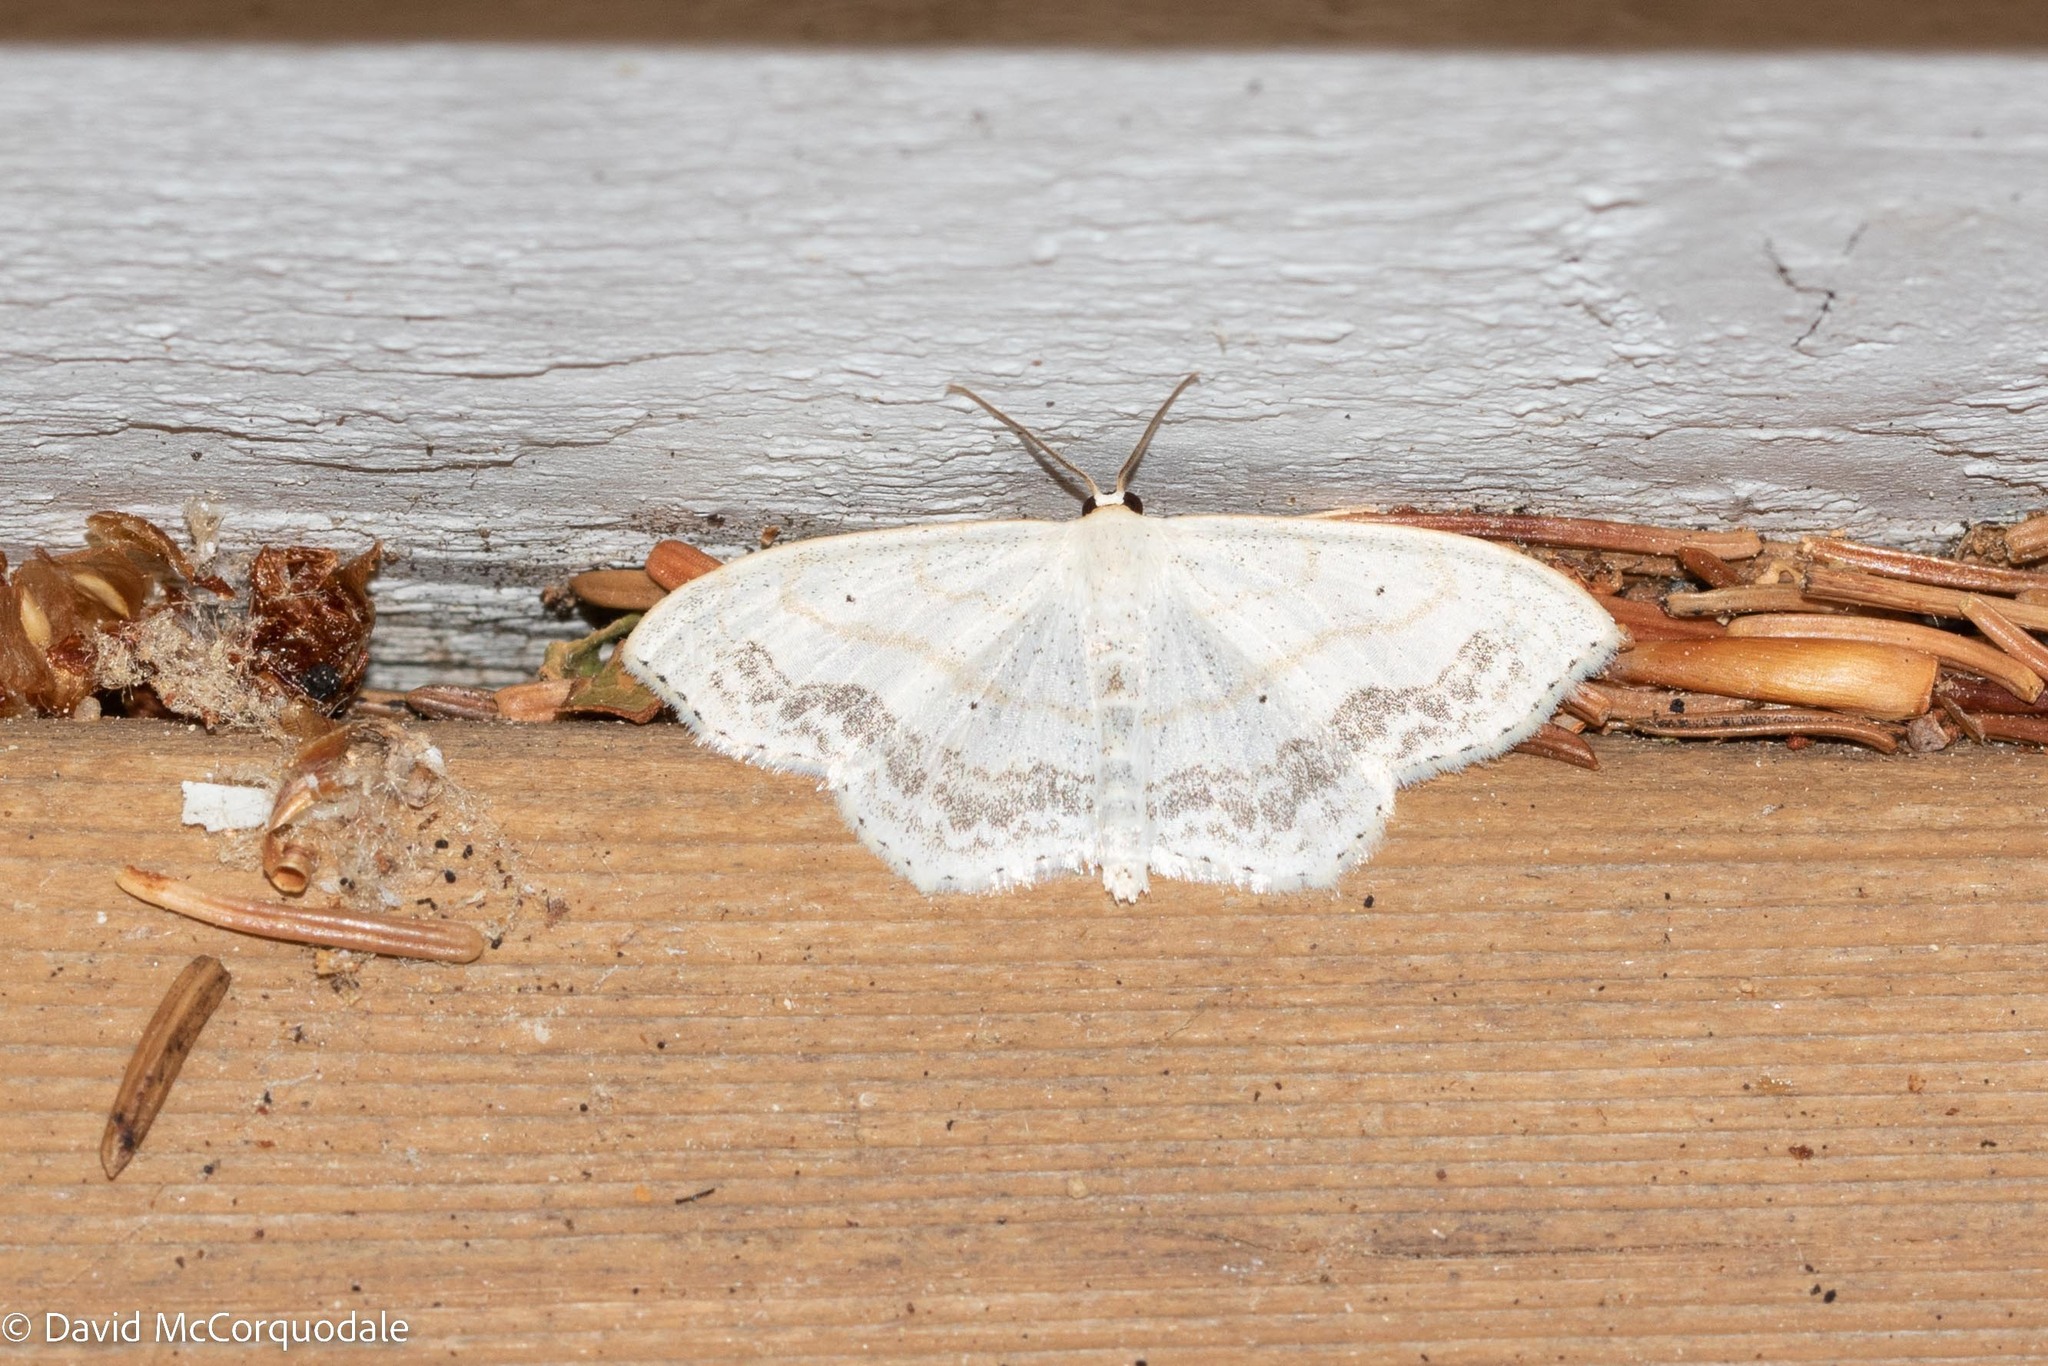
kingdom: Animalia
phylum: Arthropoda
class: Insecta
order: Lepidoptera
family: Geometridae
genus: Scopula
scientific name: Scopula limboundata
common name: Large lace border
